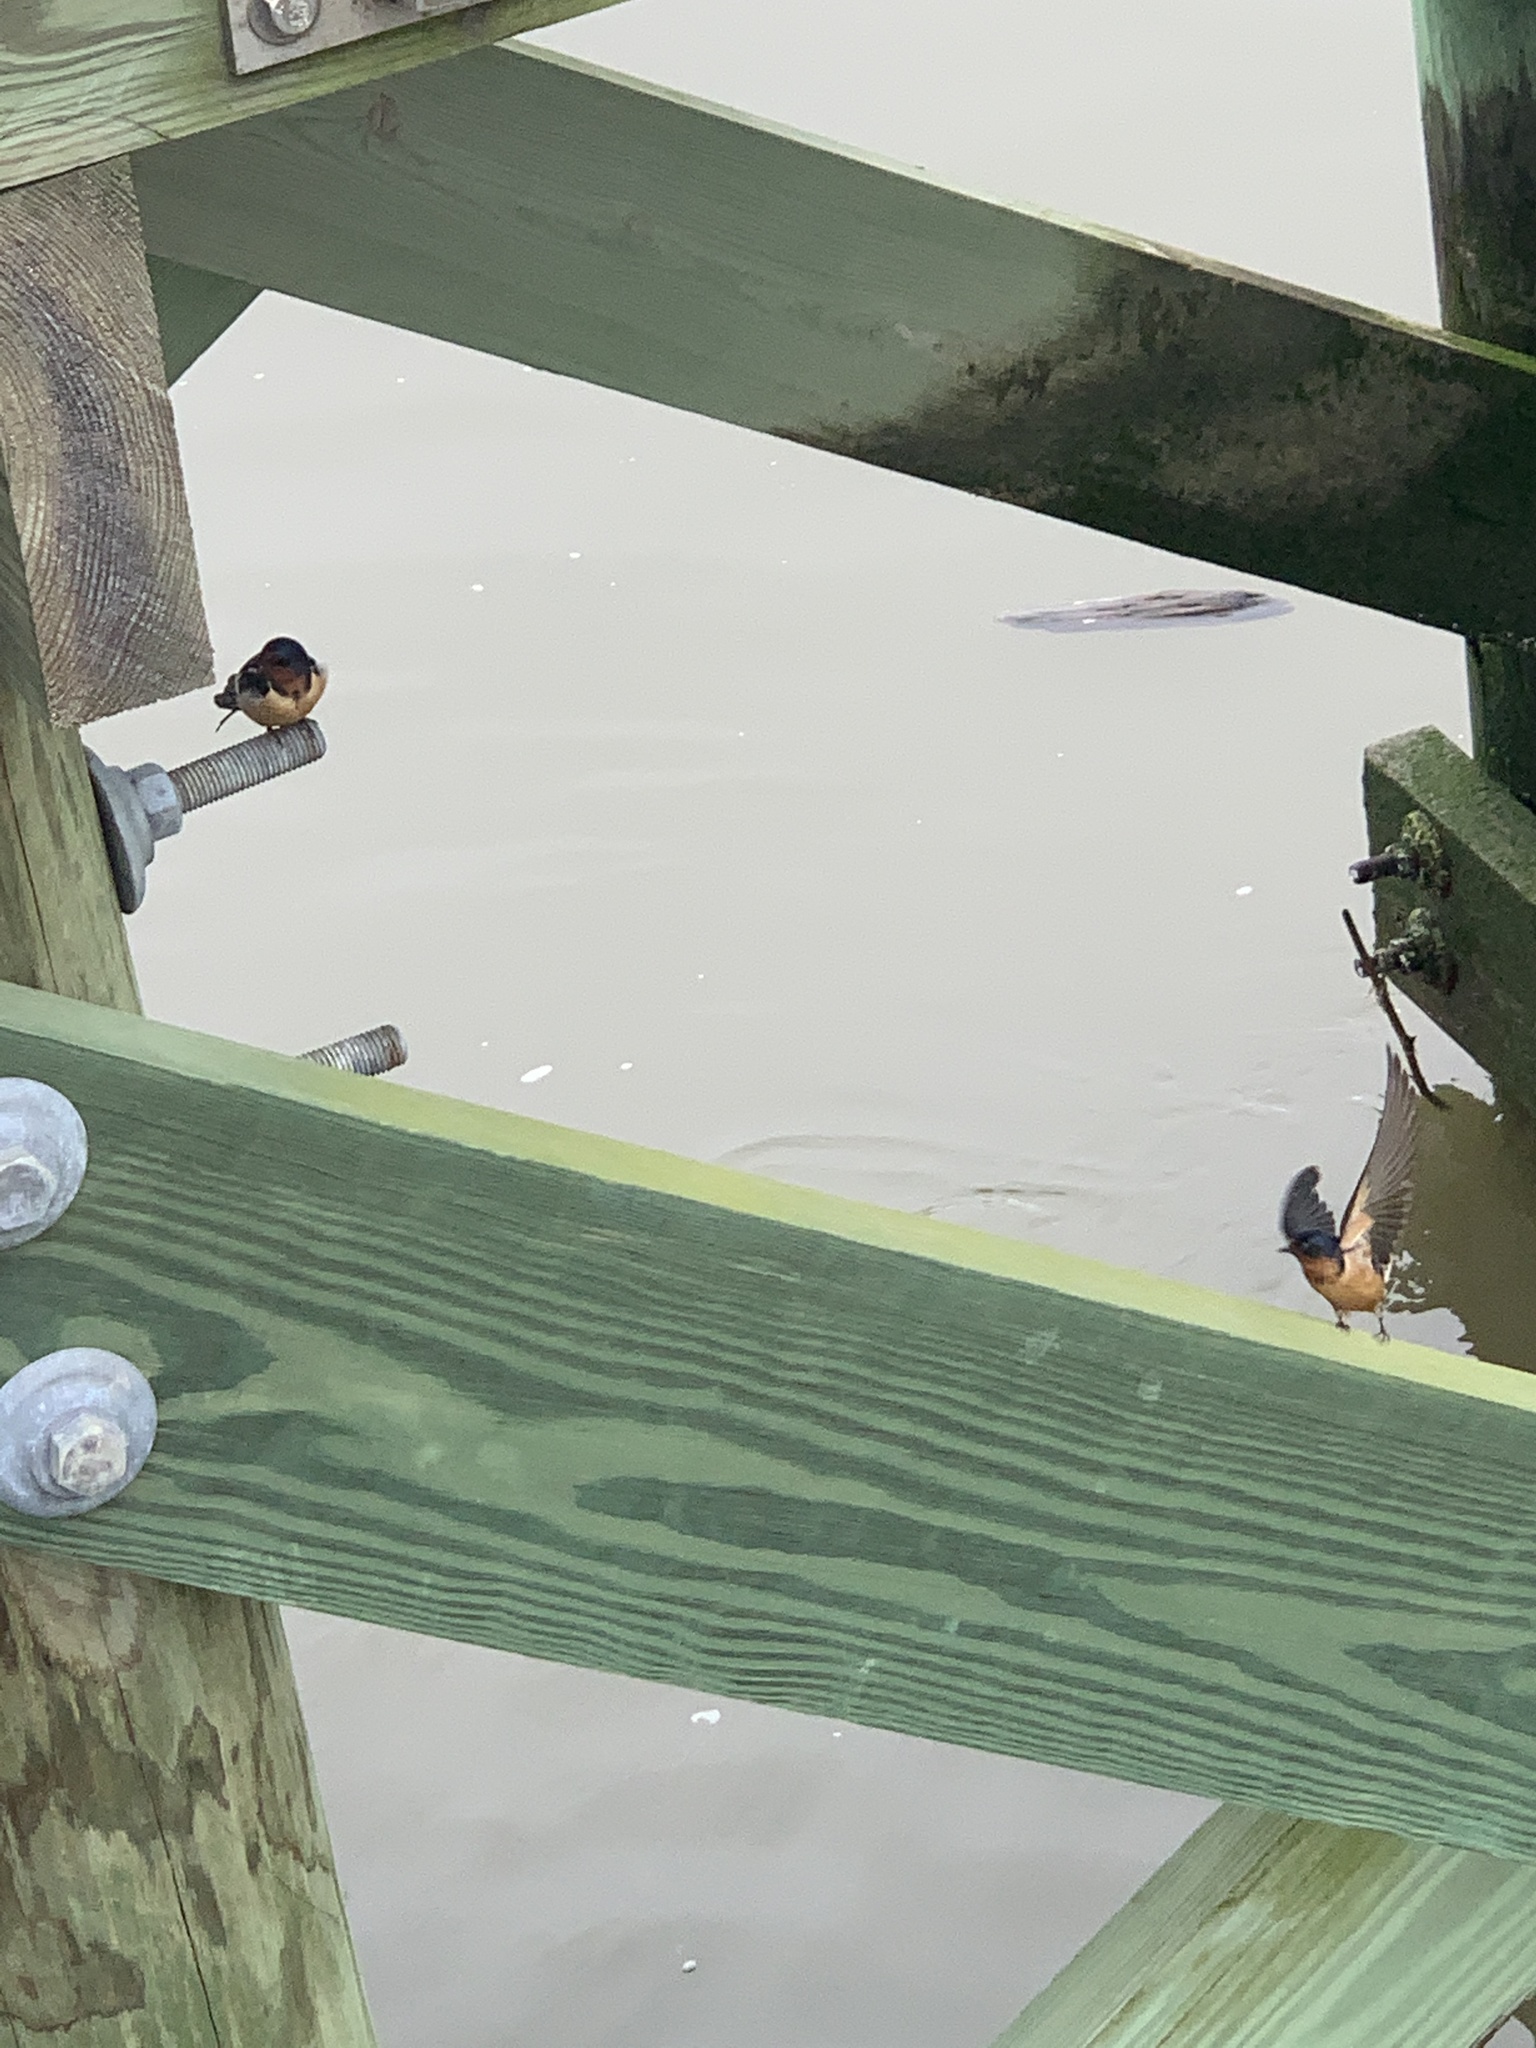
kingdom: Animalia
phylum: Chordata
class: Aves
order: Passeriformes
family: Hirundinidae
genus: Hirundo
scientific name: Hirundo rustica
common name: Barn swallow
